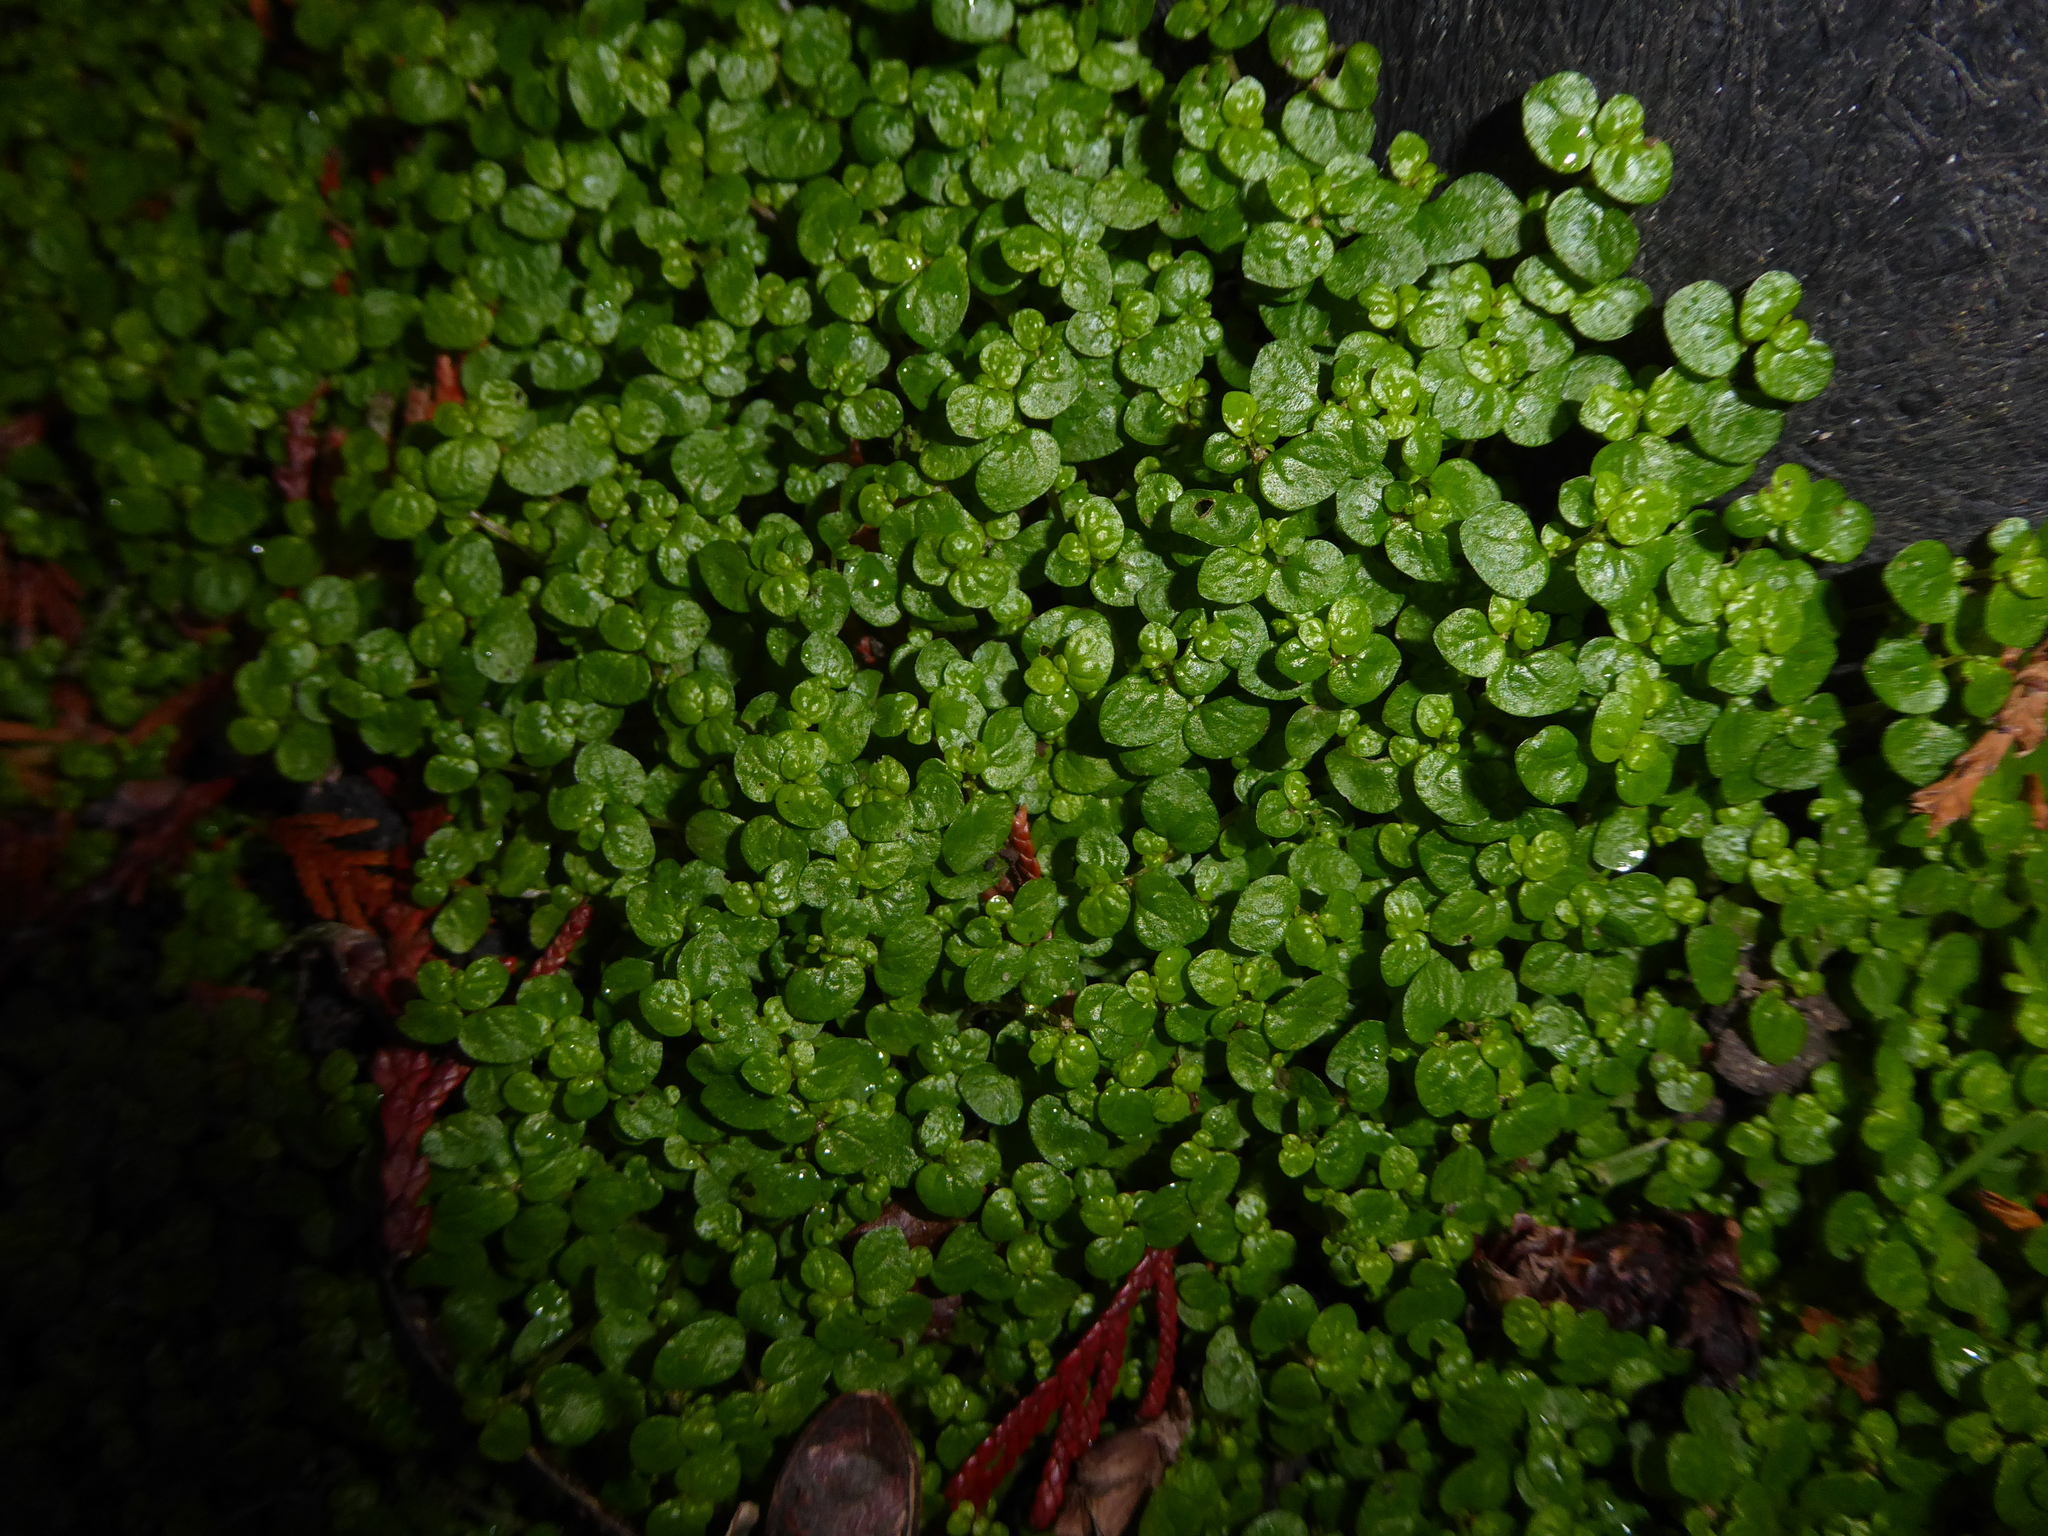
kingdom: Plantae
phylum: Tracheophyta
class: Magnoliopsida
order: Rosales
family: Urticaceae
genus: Soleirolia
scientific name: Soleirolia soleirolii
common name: Mind-your-own-business
